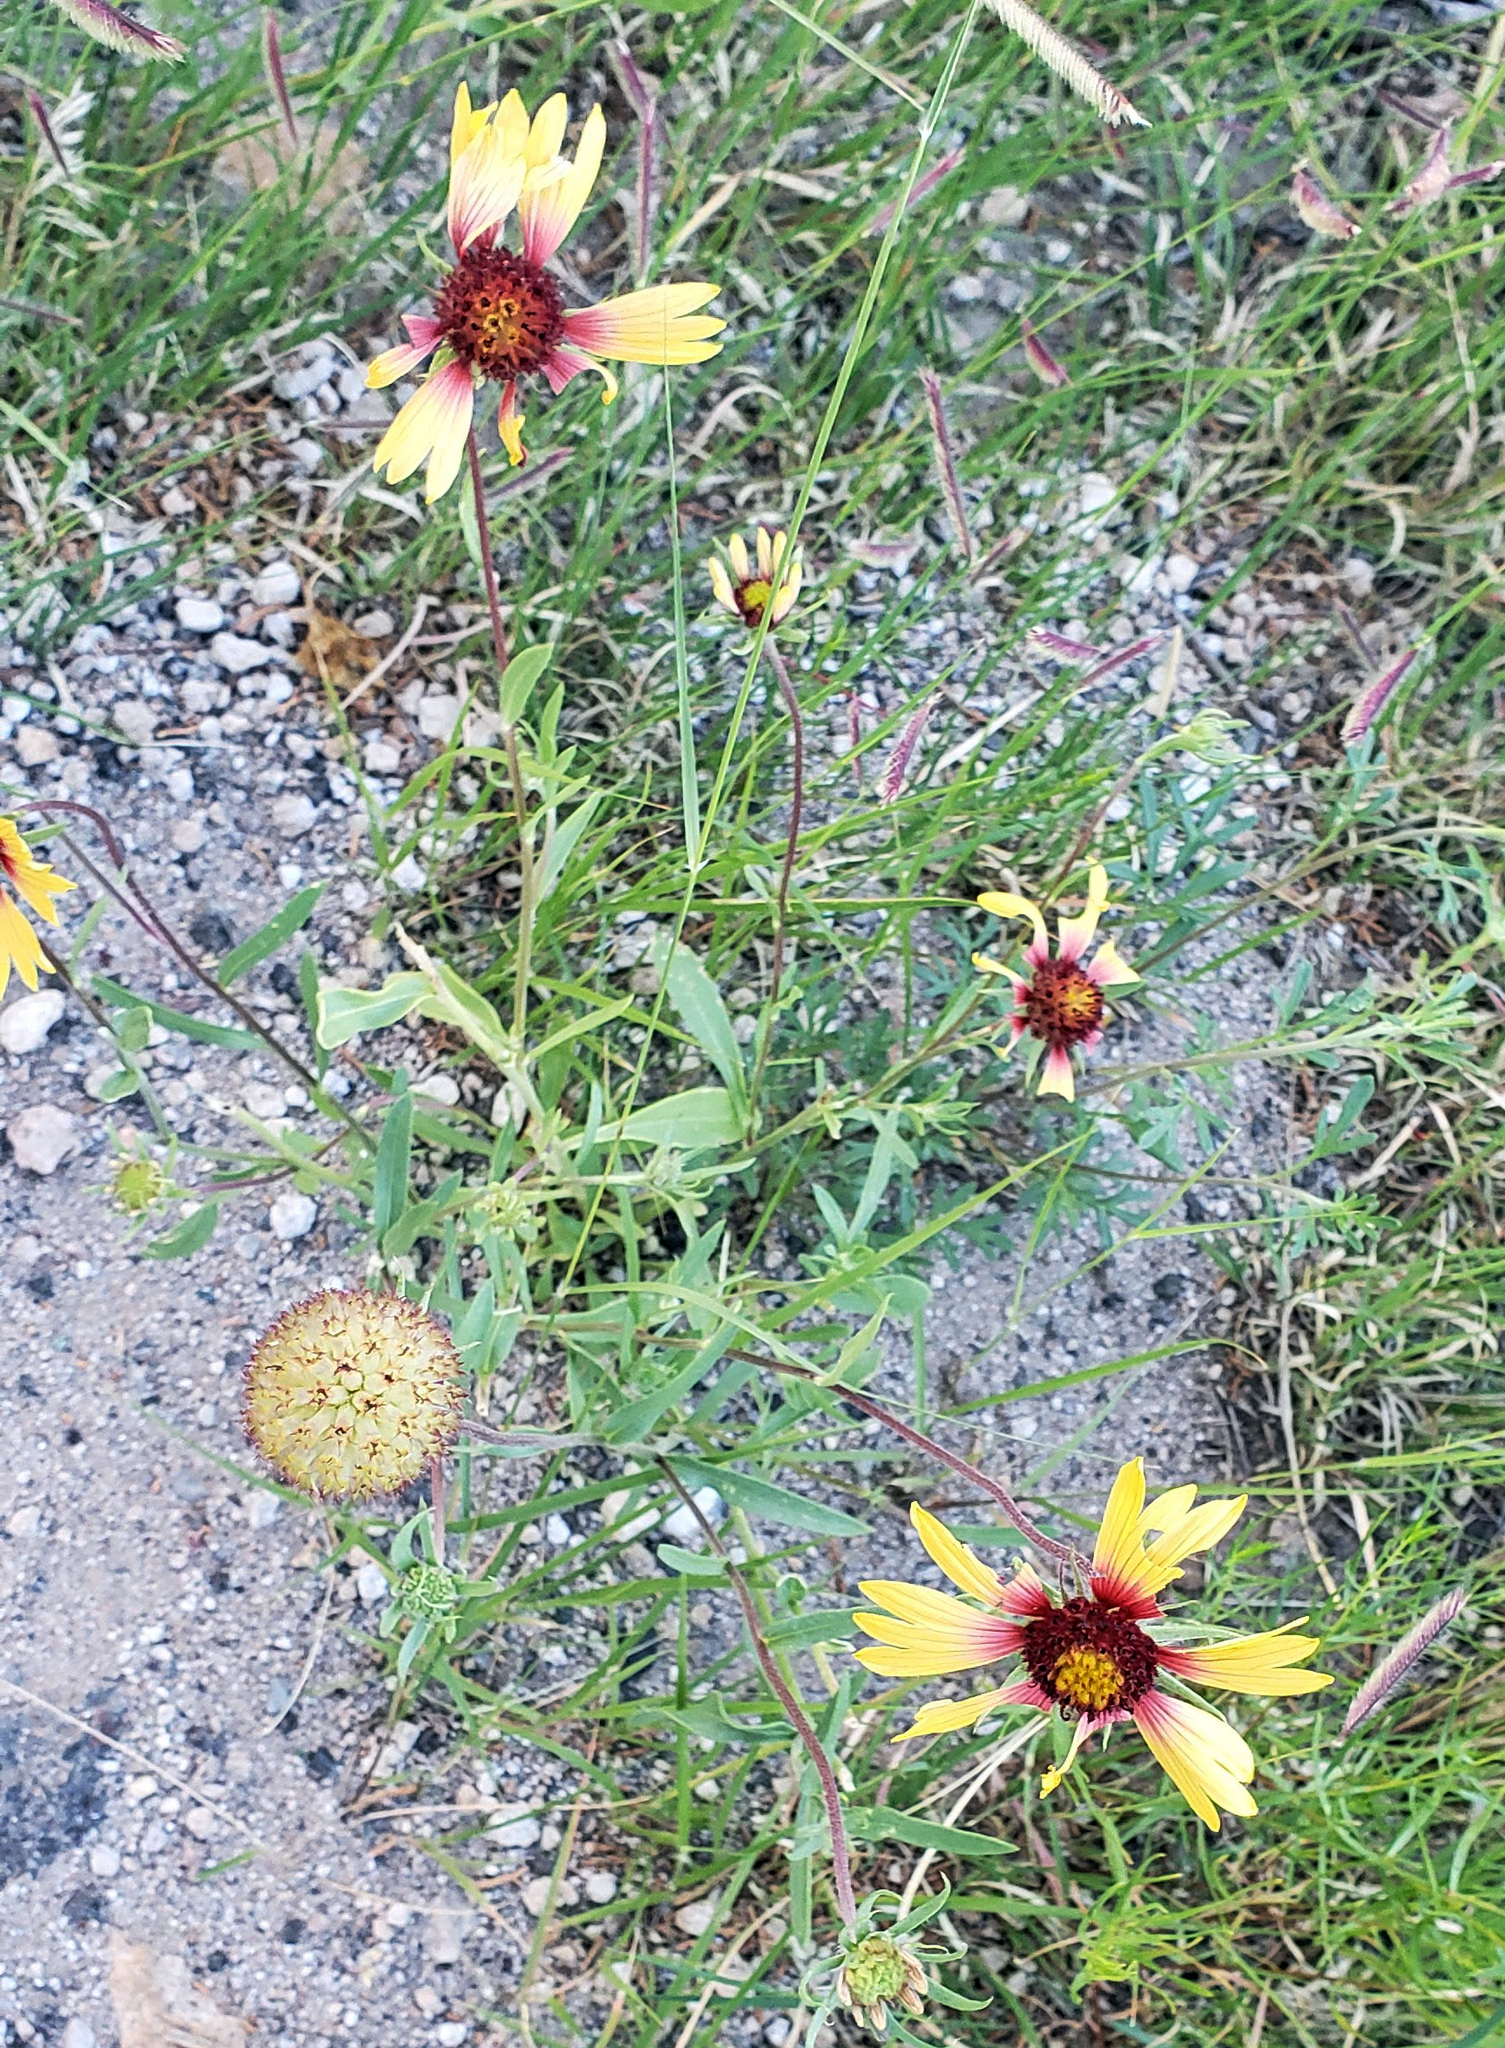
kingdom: Plantae
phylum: Tracheophyta
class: Magnoliopsida
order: Asterales
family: Asteraceae
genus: Gaillardia
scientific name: Gaillardia aristata
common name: Blanket-flower
